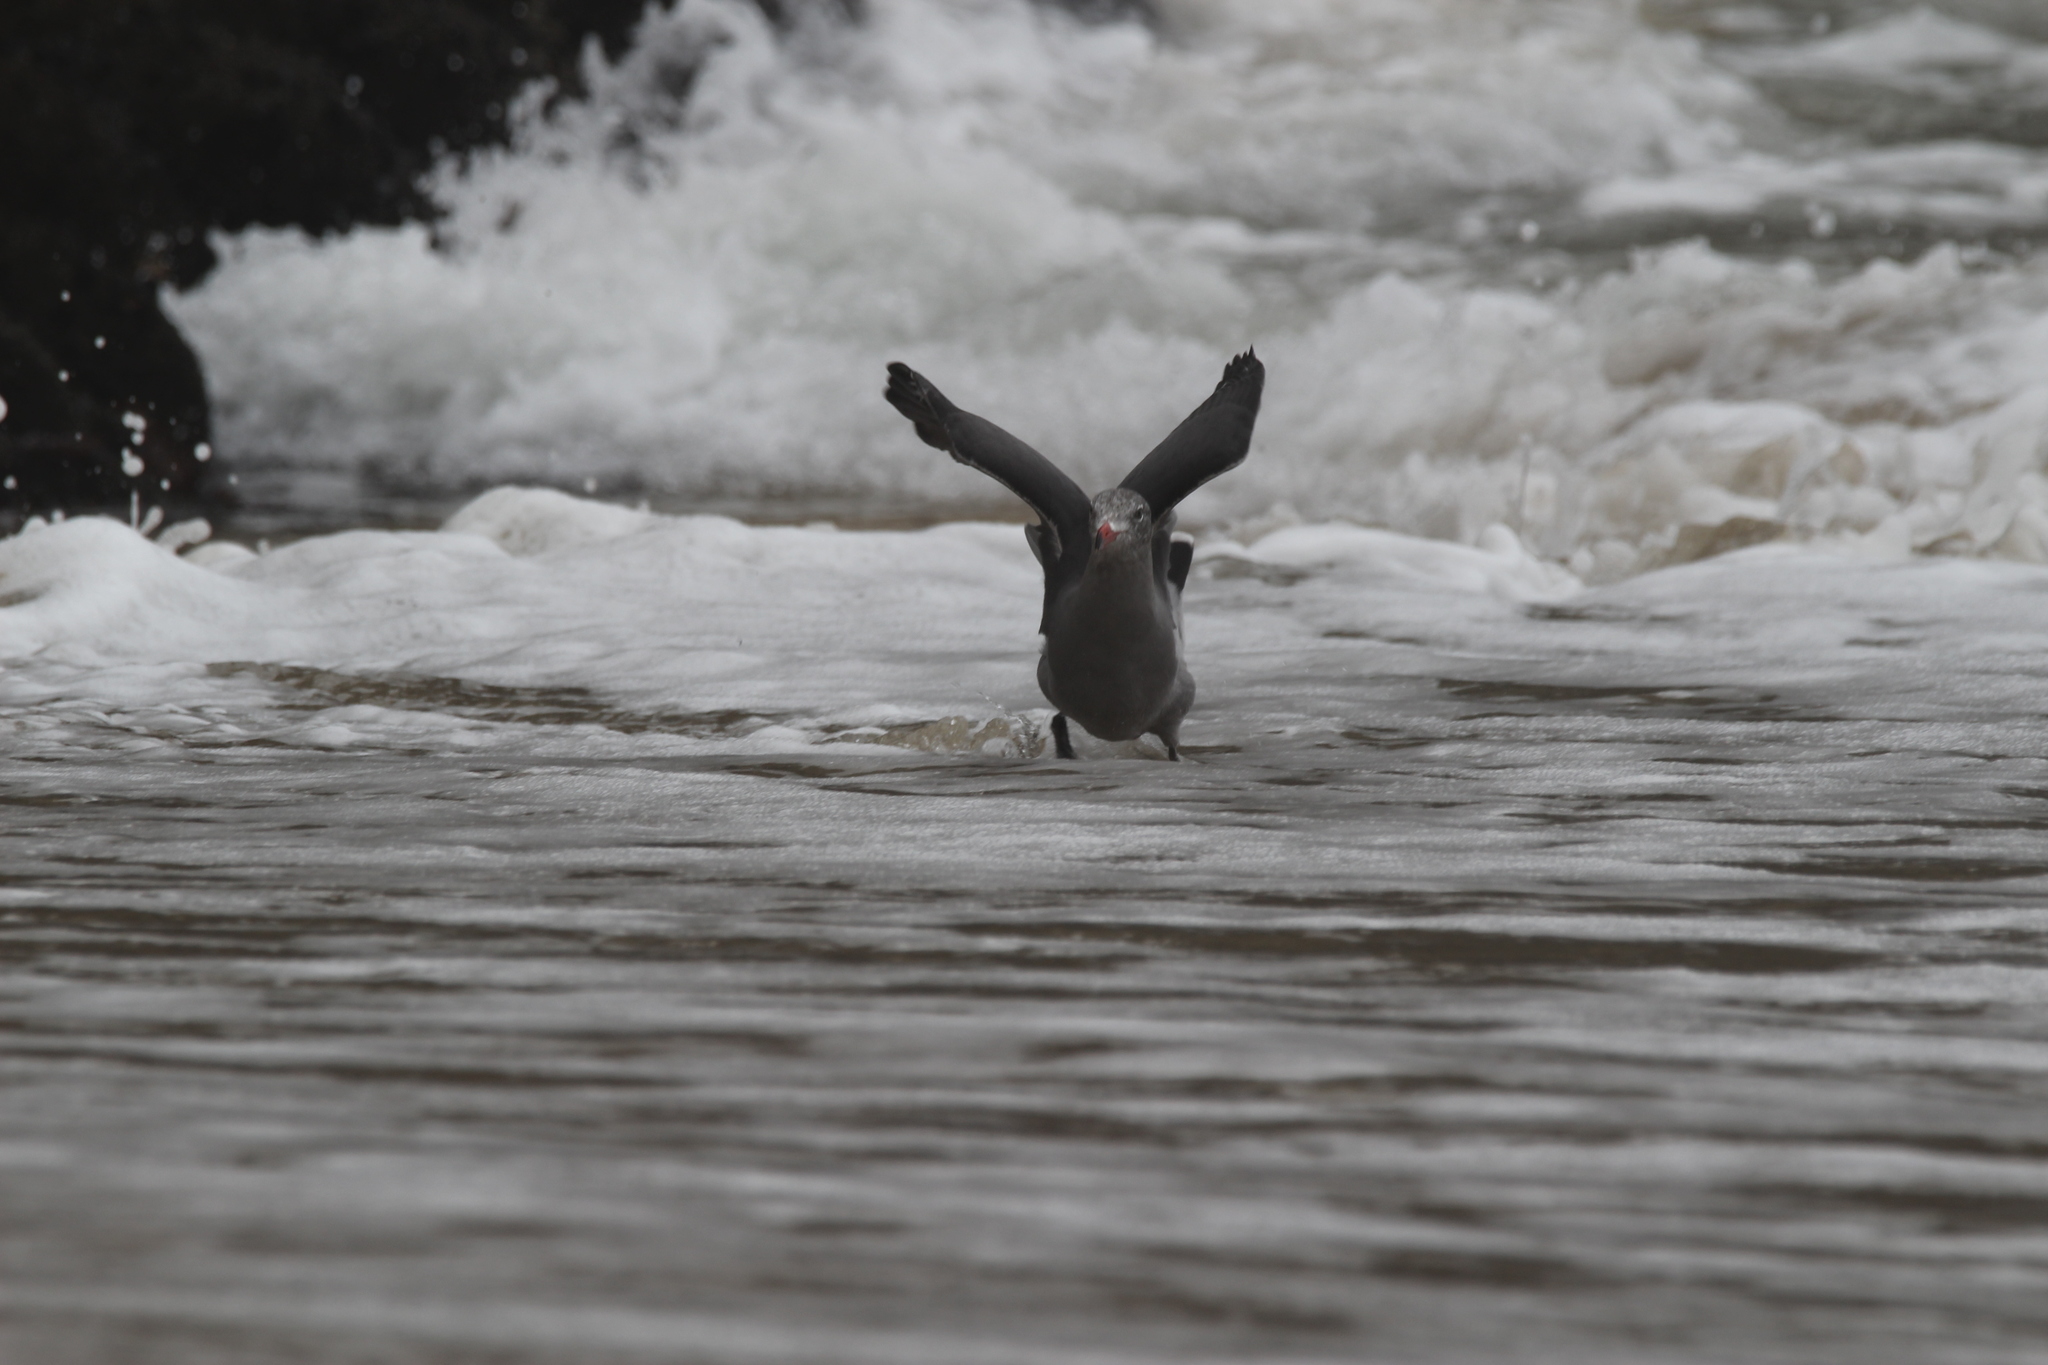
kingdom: Animalia
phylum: Chordata
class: Aves
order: Charadriiformes
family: Laridae
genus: Larus
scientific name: Larus heermanni
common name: Heermann's gull
